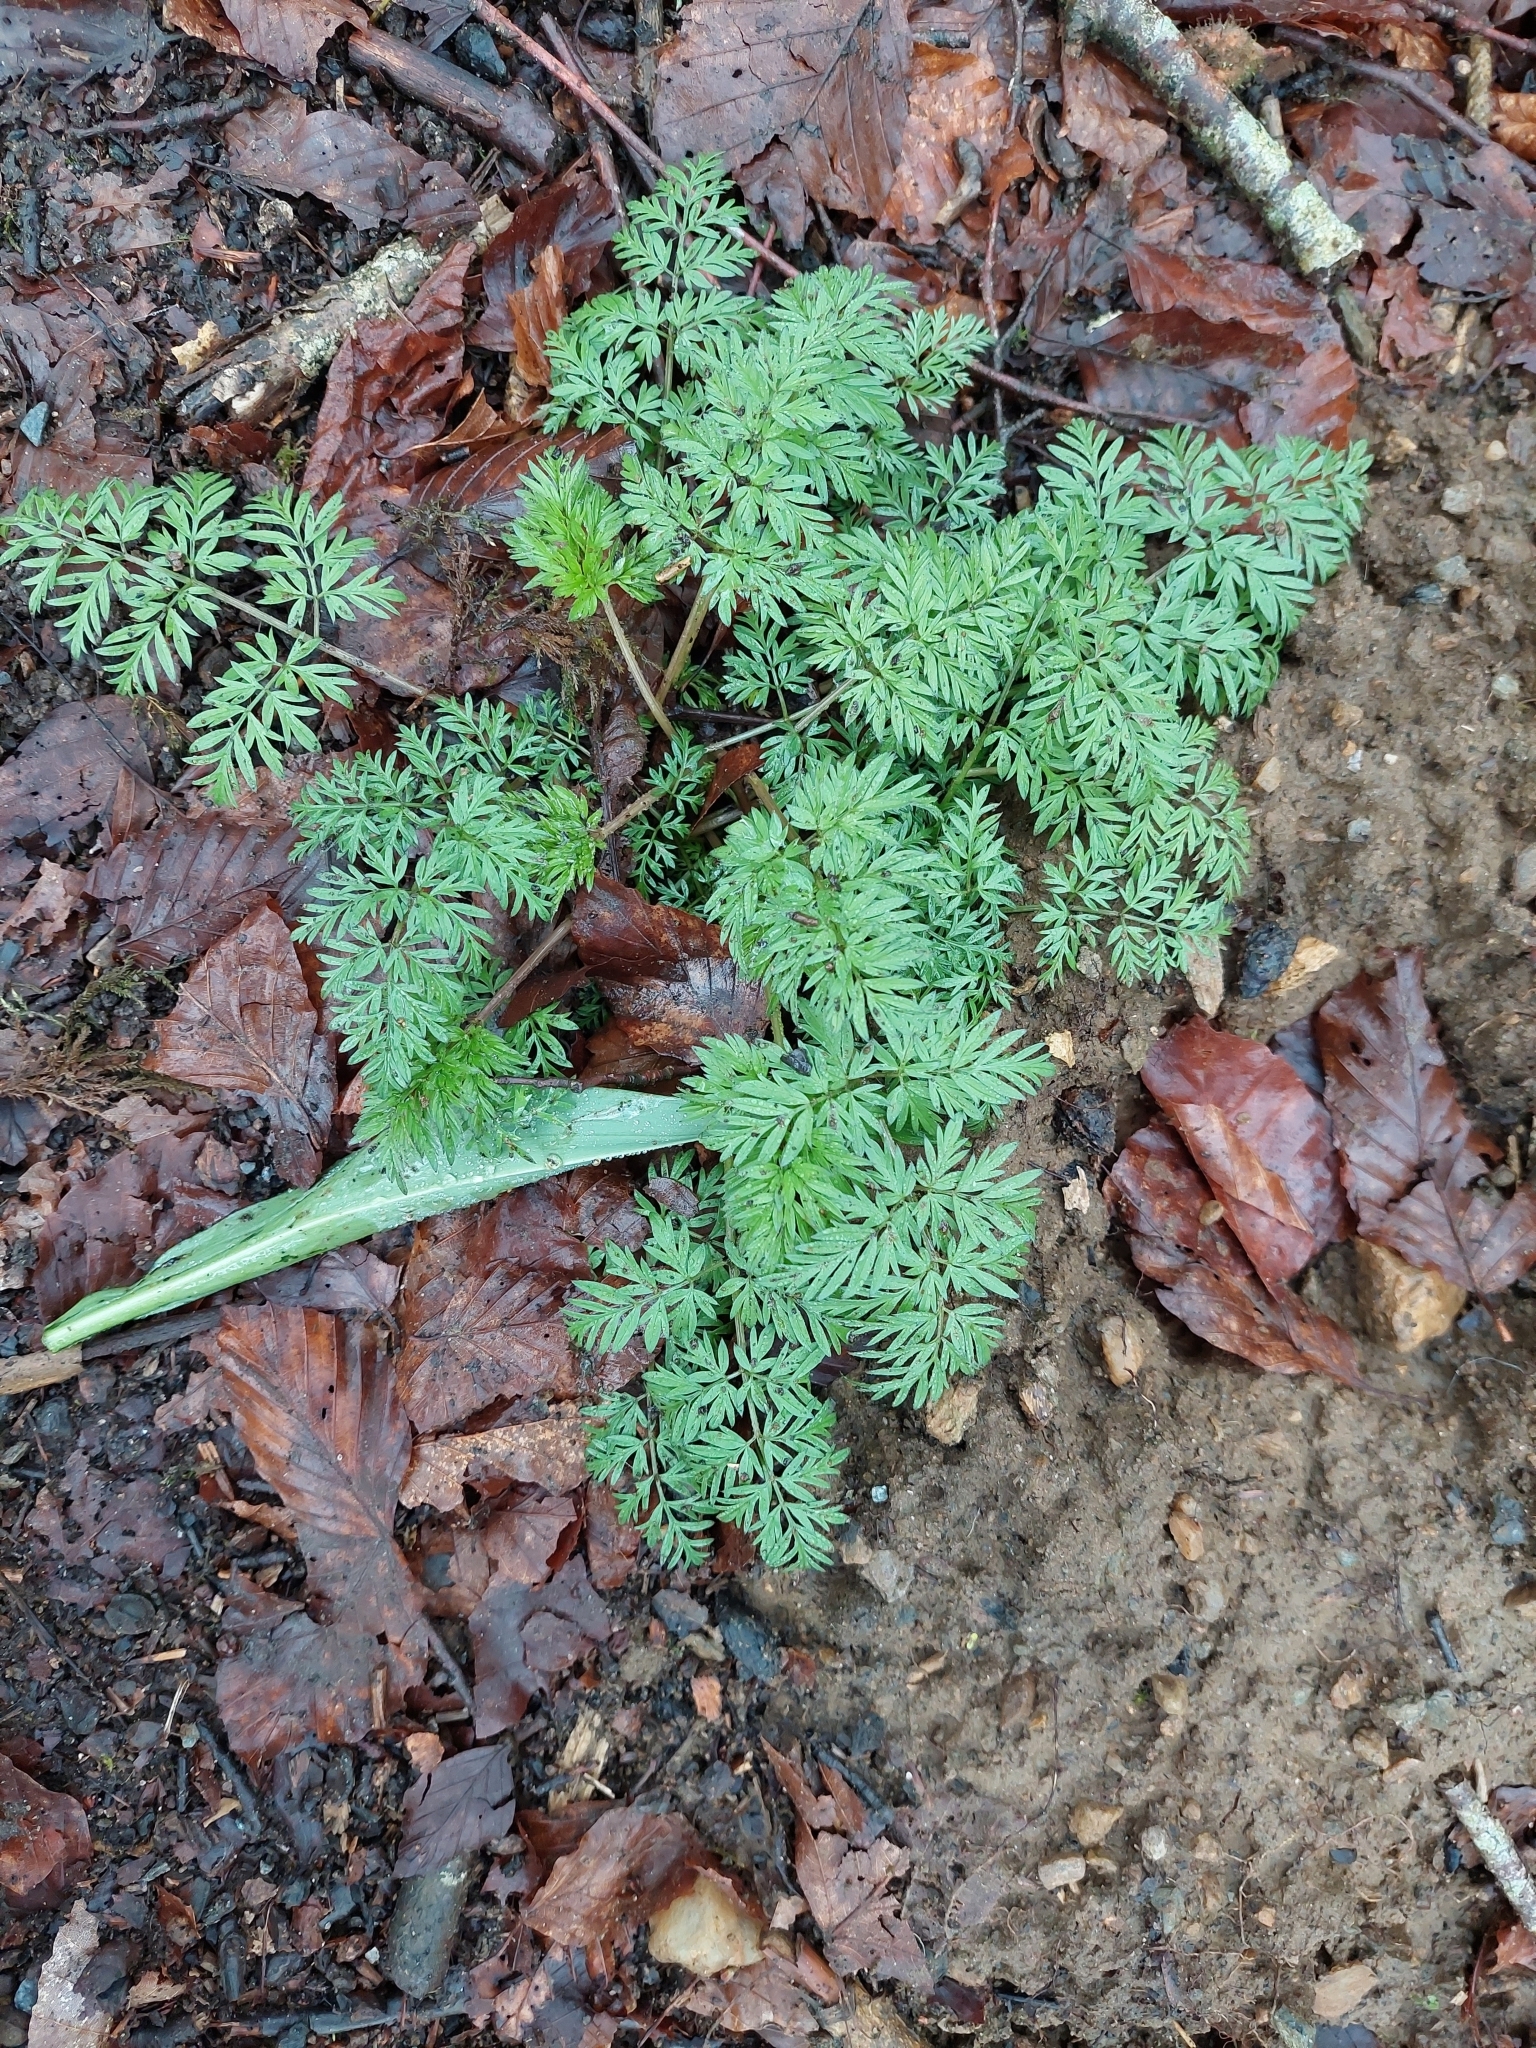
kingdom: Plantae
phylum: Tracheophyta
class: Magnoliopsida
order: Apiales
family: Apiaceae
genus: Conopodium
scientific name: Conopodium majus
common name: Pignut
